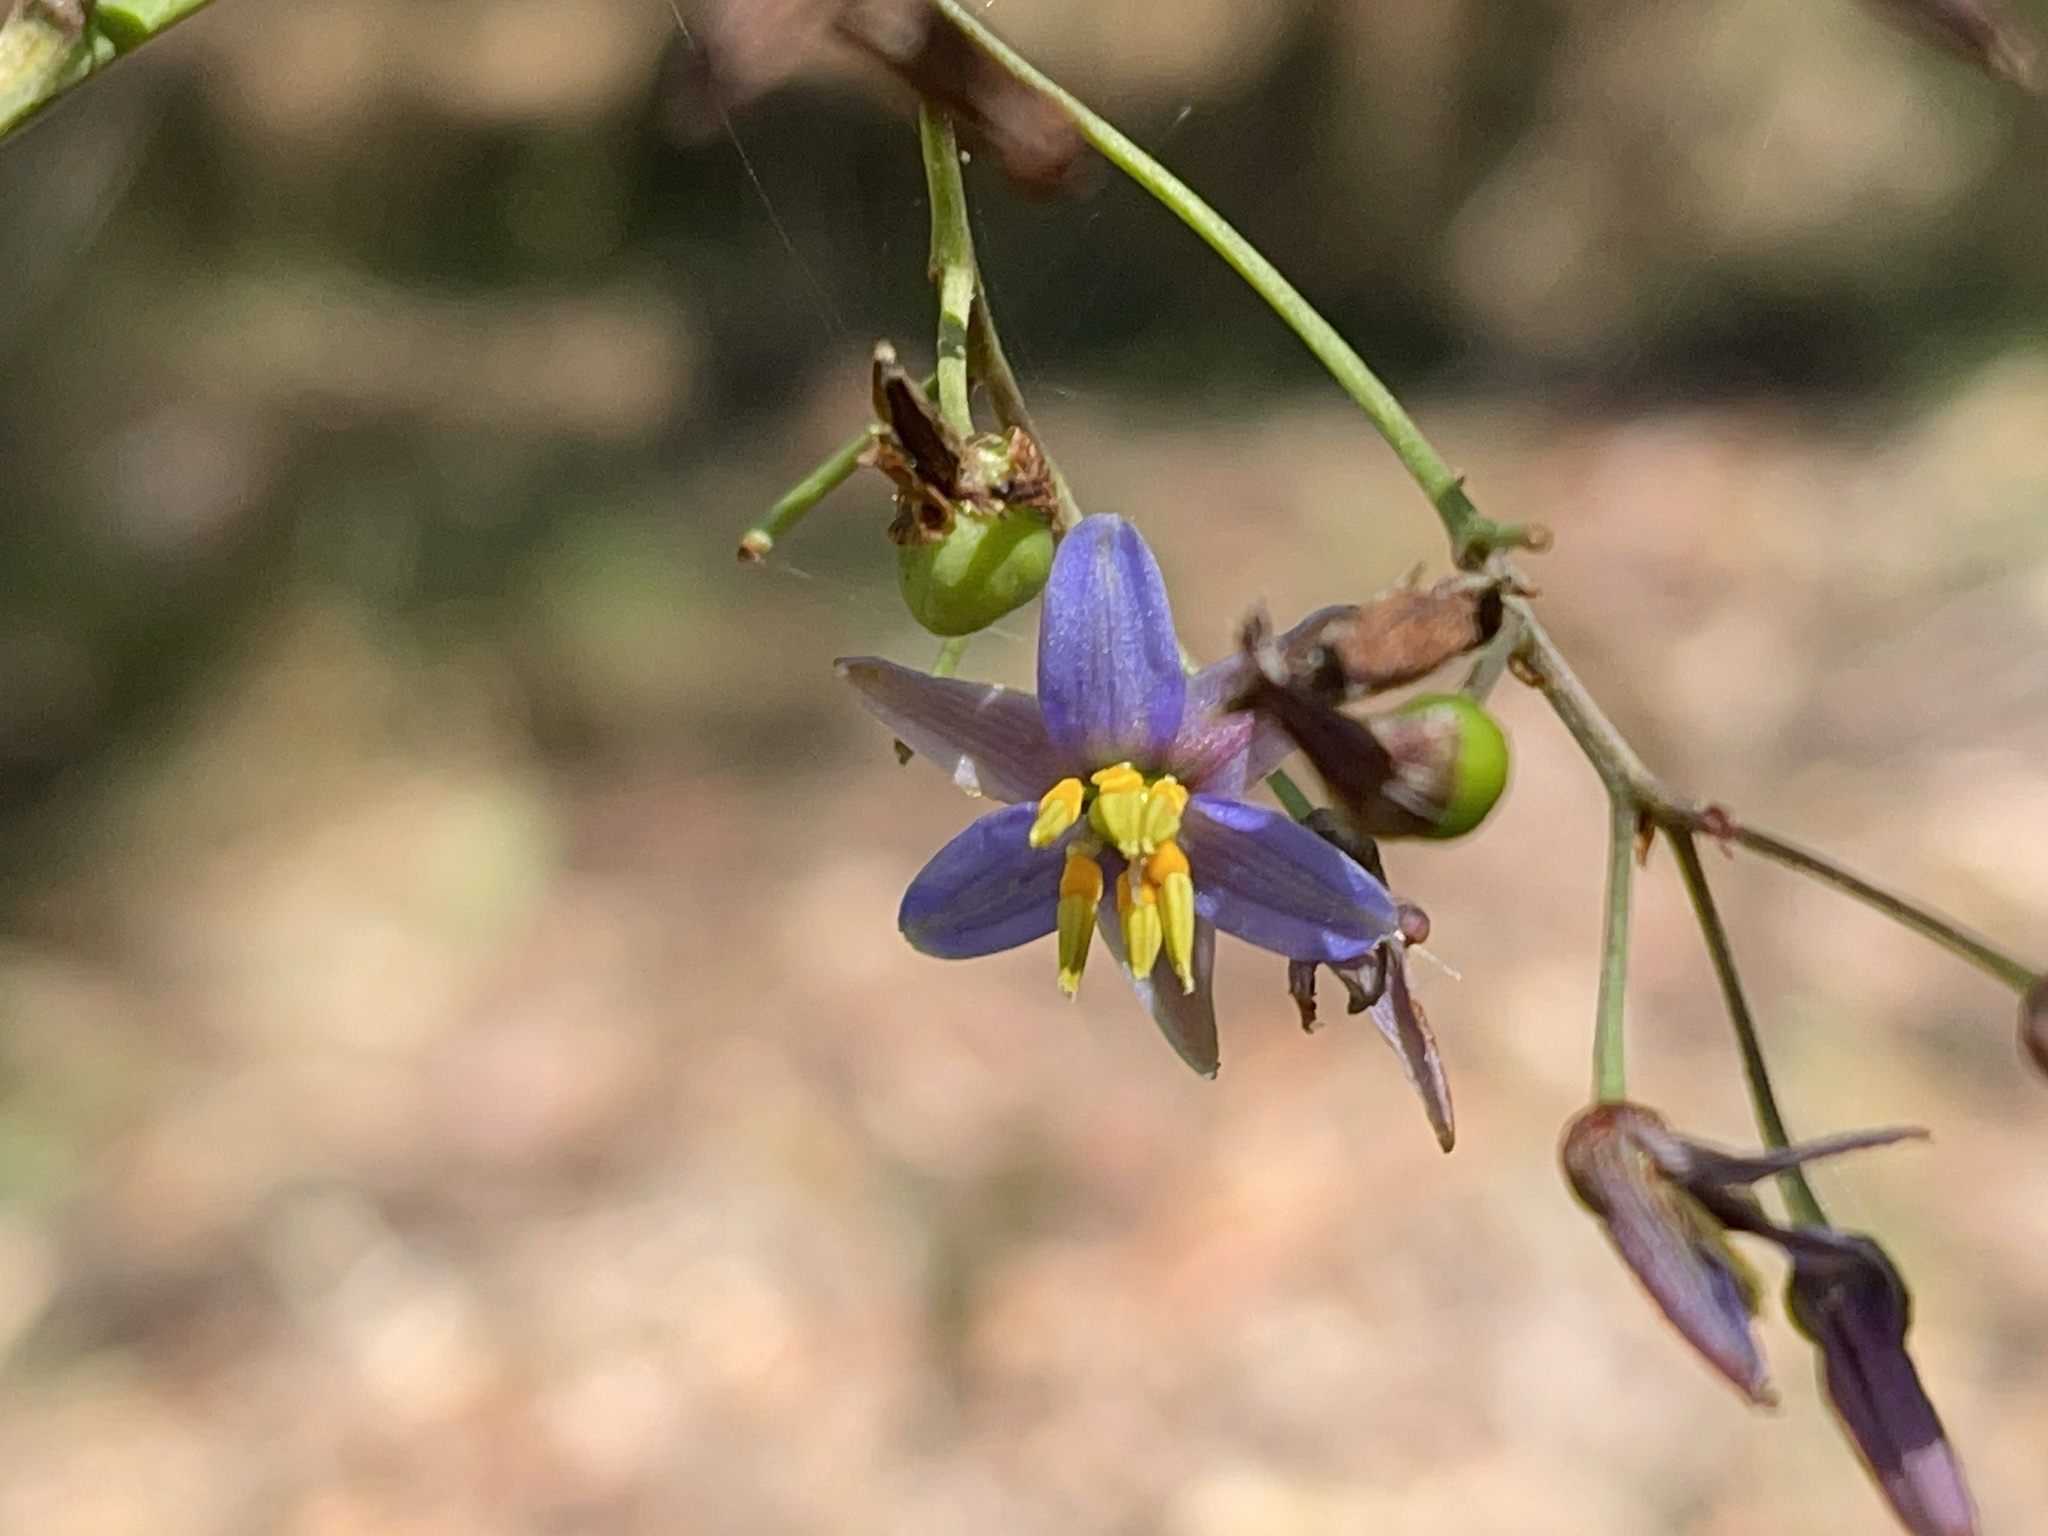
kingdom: Plantae
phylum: Tracheophyta
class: Liliopsida
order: Asparagales
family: Asphodelaceae
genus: Dianella
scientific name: Dianella longifolia
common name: Blue flax-lily
